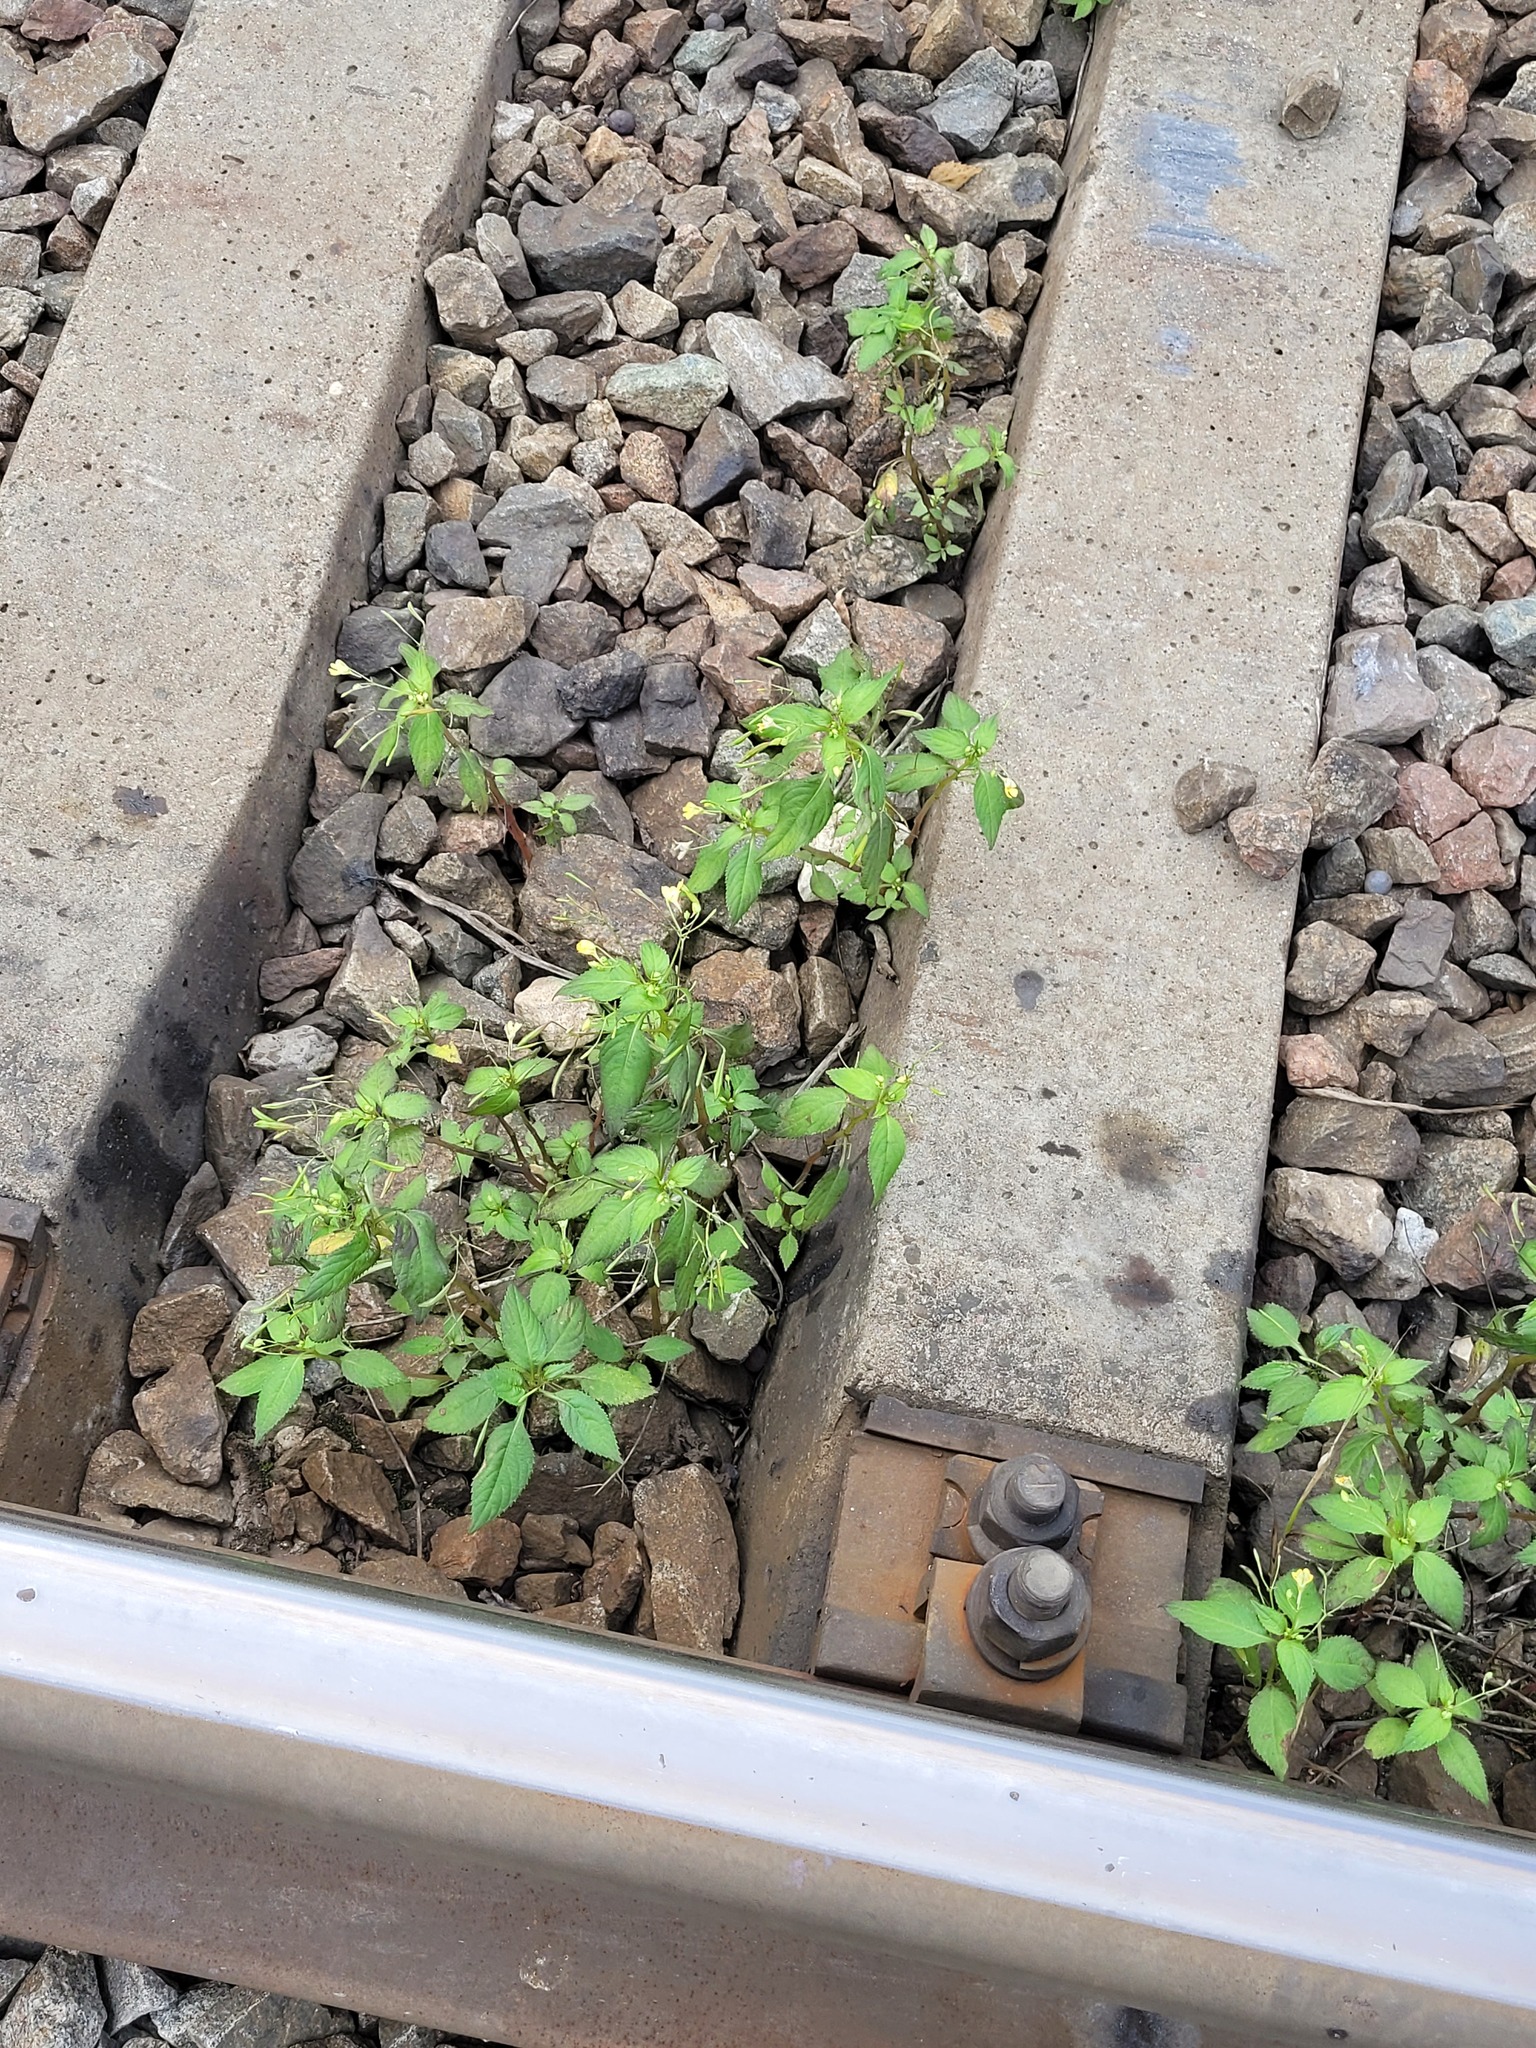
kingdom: Plantae
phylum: Tracheophyta
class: Magnoliopsida
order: Ericales
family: Balsaminaceae
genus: Impatiens
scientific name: Impatiens parviflora
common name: Small balsam
